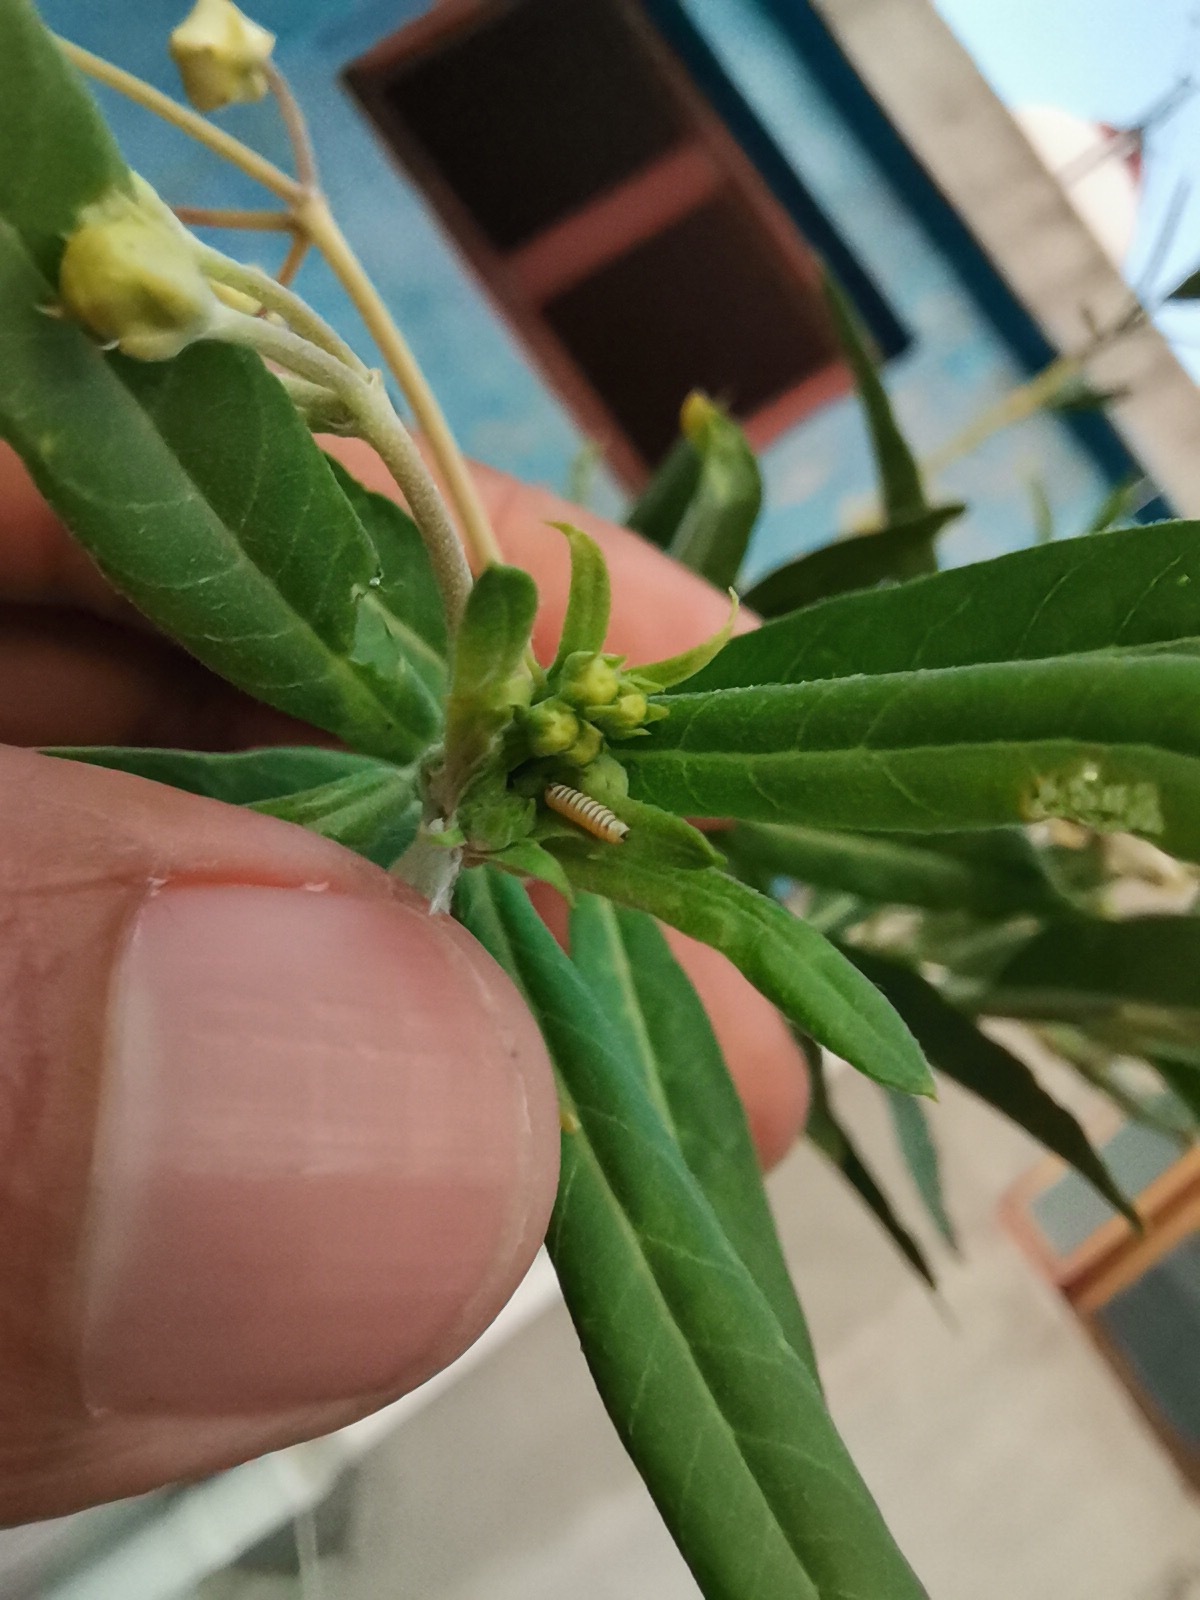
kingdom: Animalia
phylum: Arthropoda
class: Insecta
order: Lepidoptera
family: Nymphalidae
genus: Danaus
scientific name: Danaus plexippus
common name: Monarch
